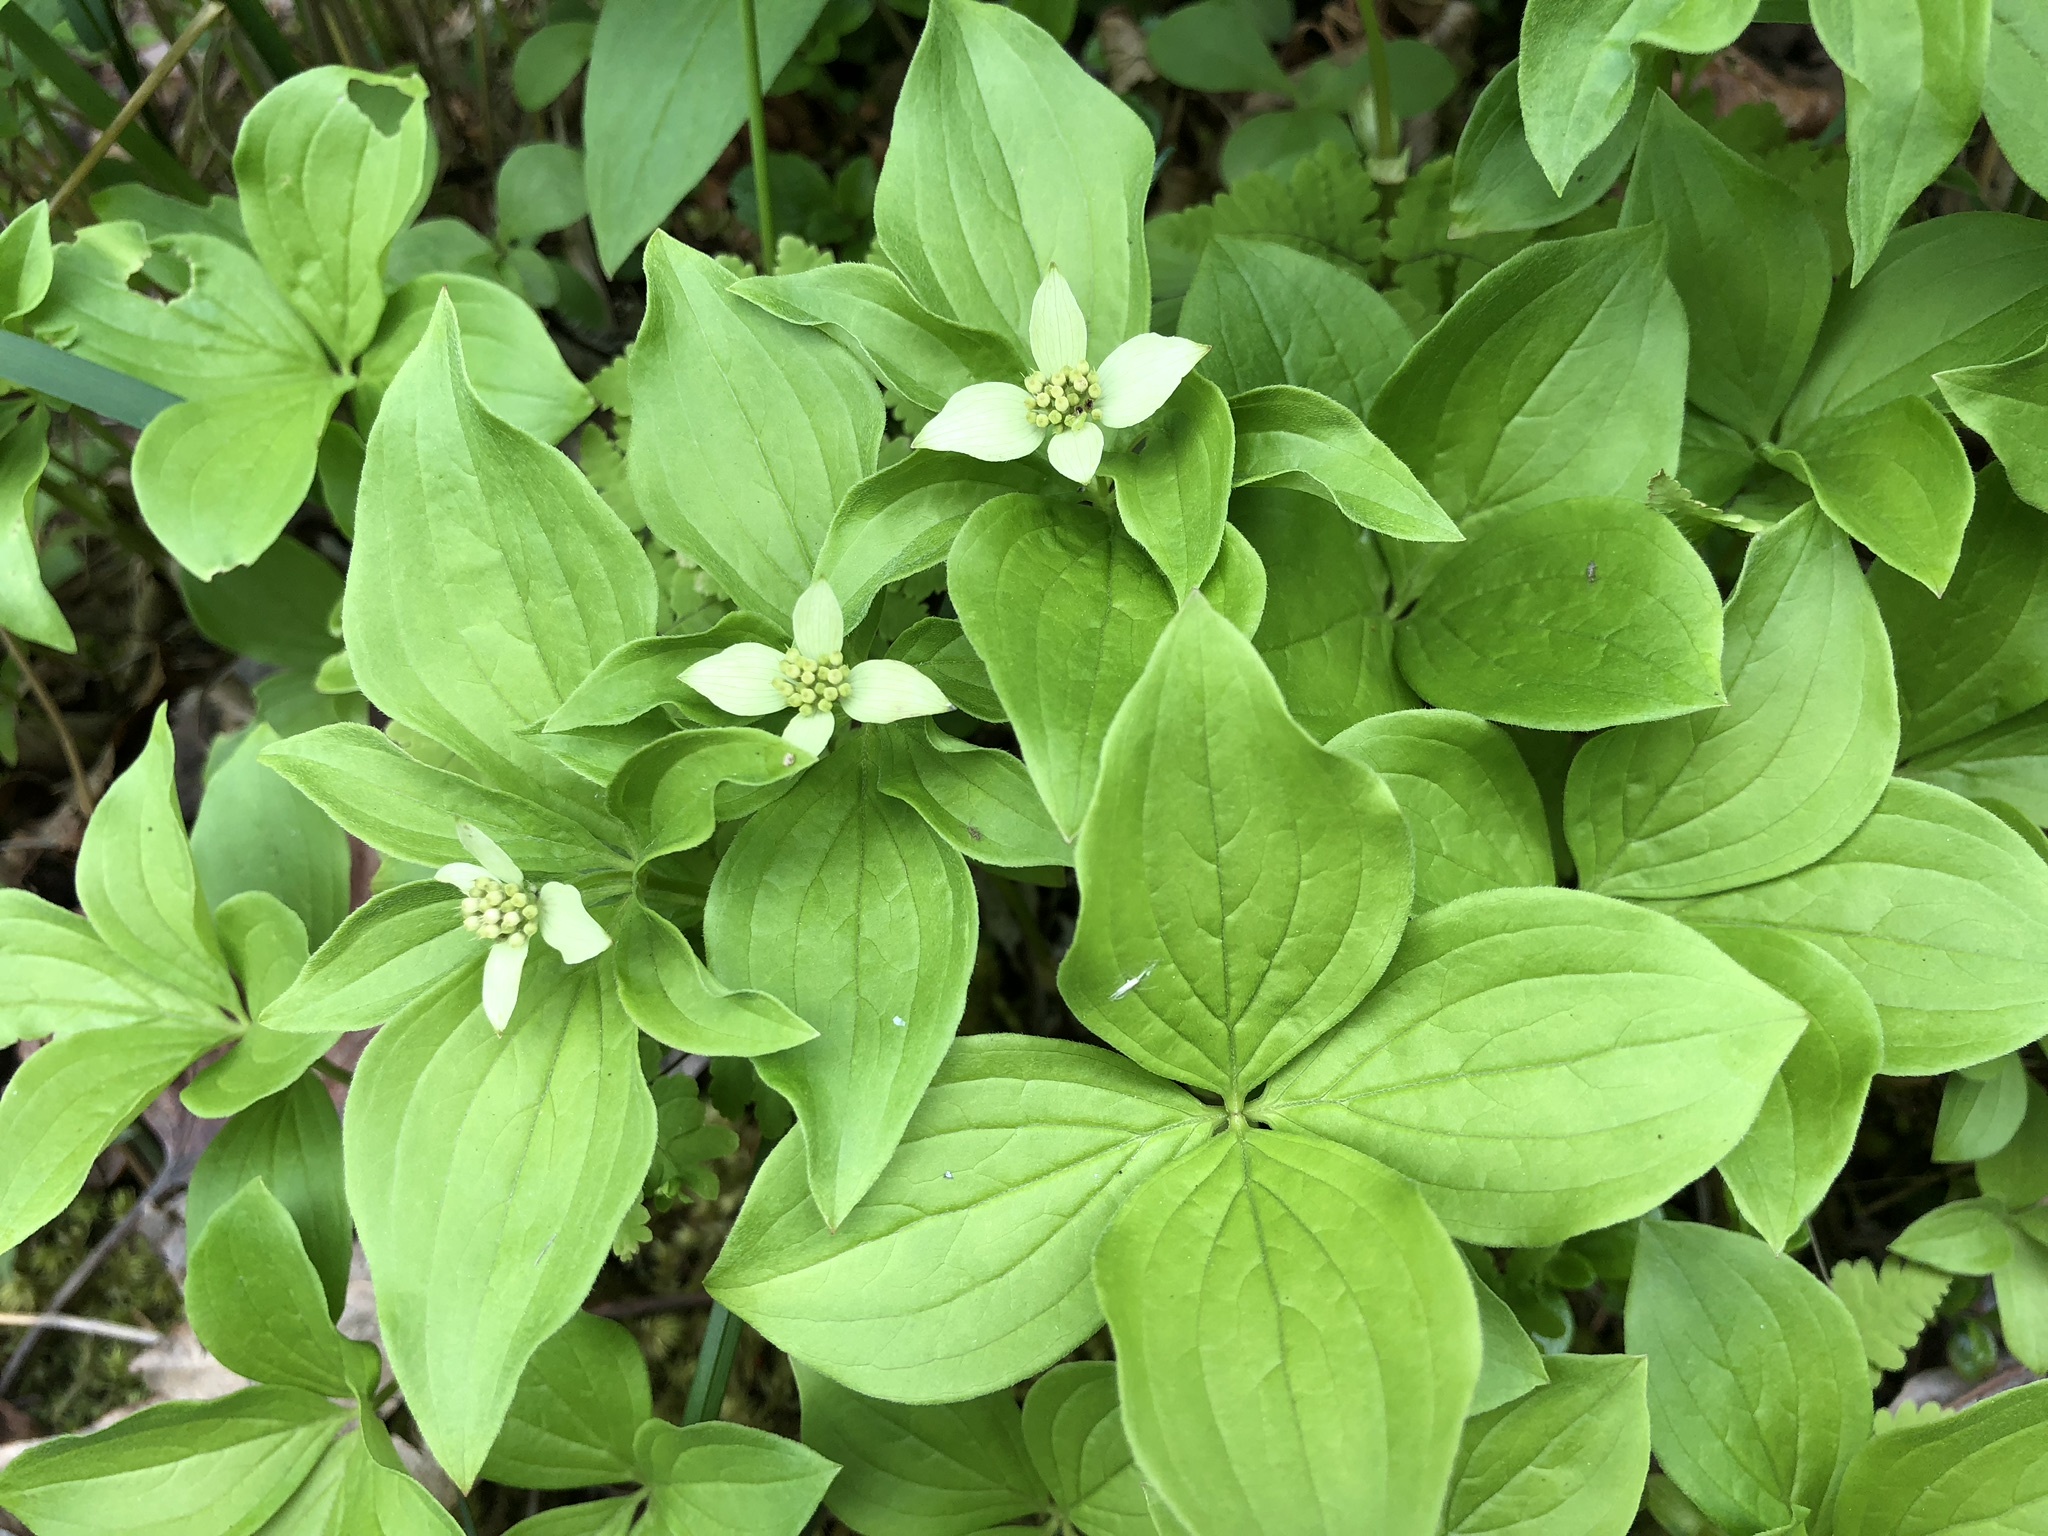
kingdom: Plantae
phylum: Tracheophyta
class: Magnoliopsida
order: Cornales
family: Cornaceae
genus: Cornus
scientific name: Cornus canadensis
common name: Creeping dogwood
